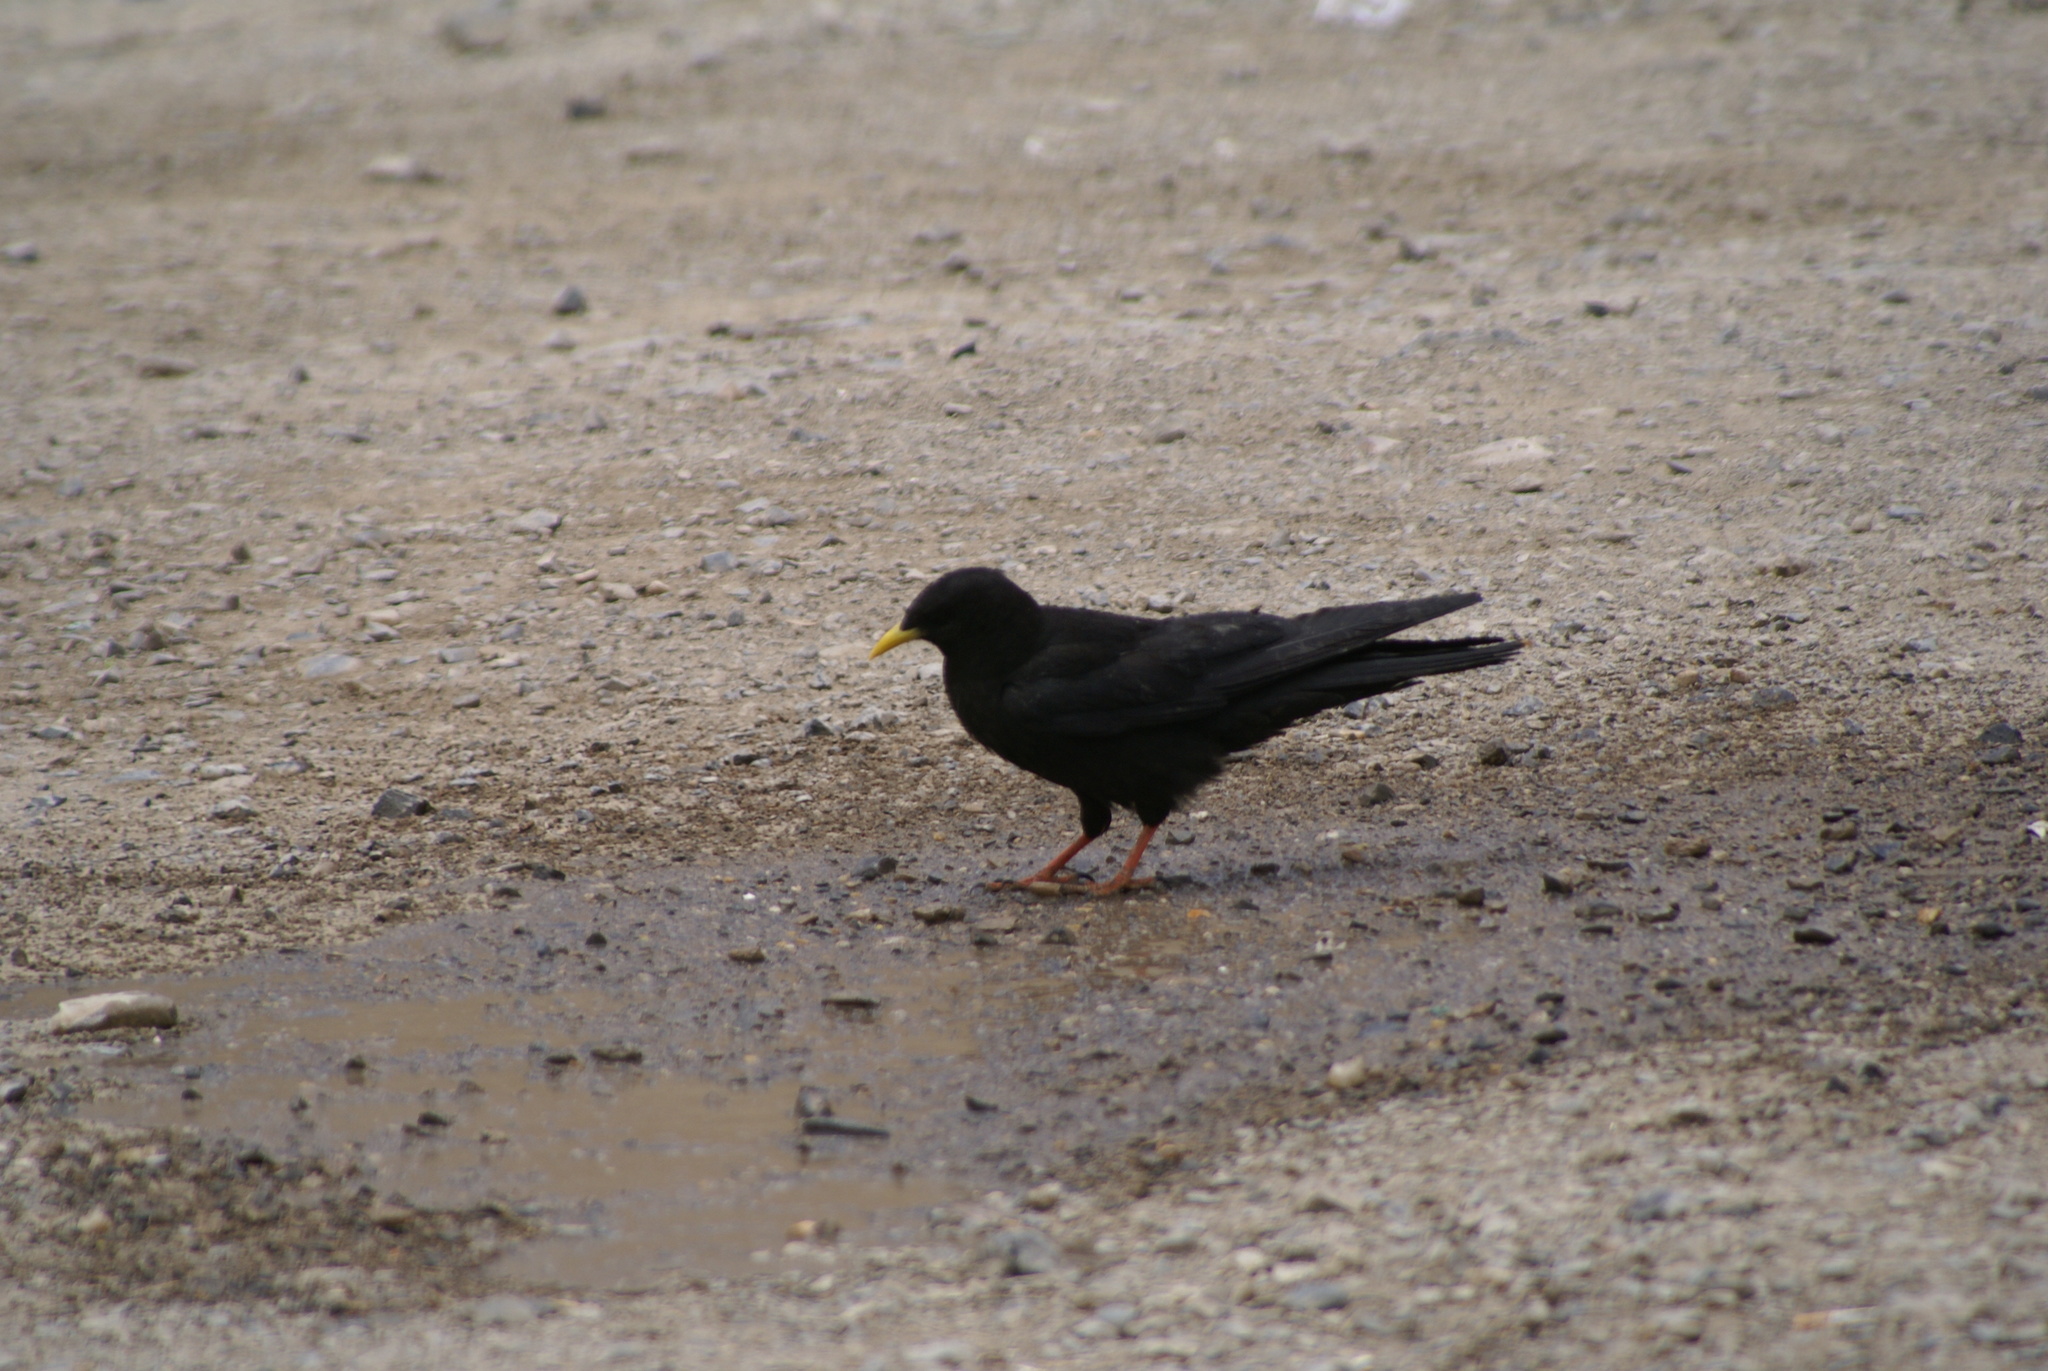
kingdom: Animalia
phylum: Chordata
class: Aves
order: Passeriformes
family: Corvidae
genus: Pyrrhocorax
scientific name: Pyrrhocorax graculus
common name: Alpine chough
